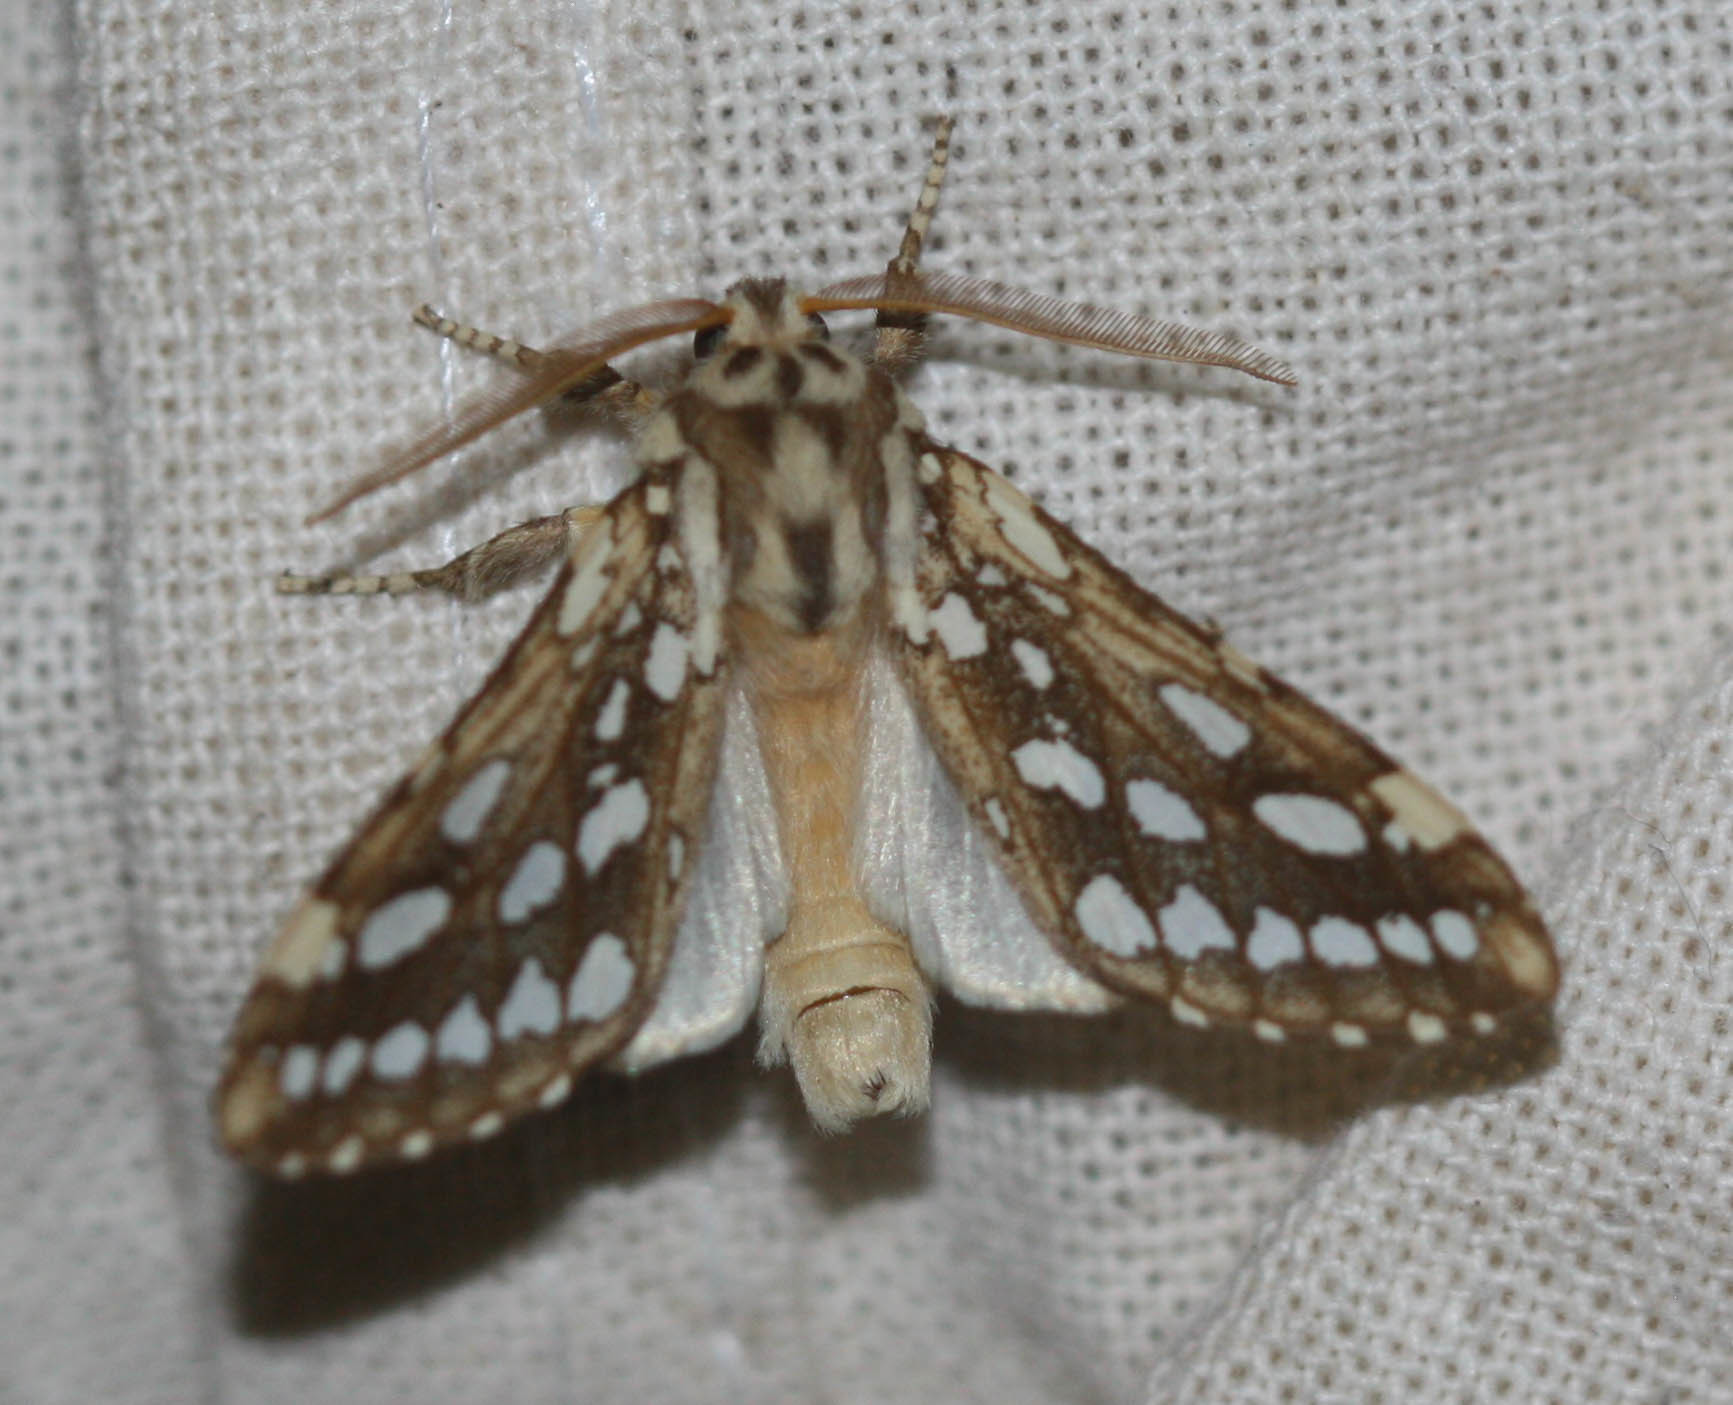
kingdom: Animalia
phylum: Arthropoda
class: Insecta
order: Lepidoptera
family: Erebidae
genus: Lophocampa
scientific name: Lophocampa argentata
